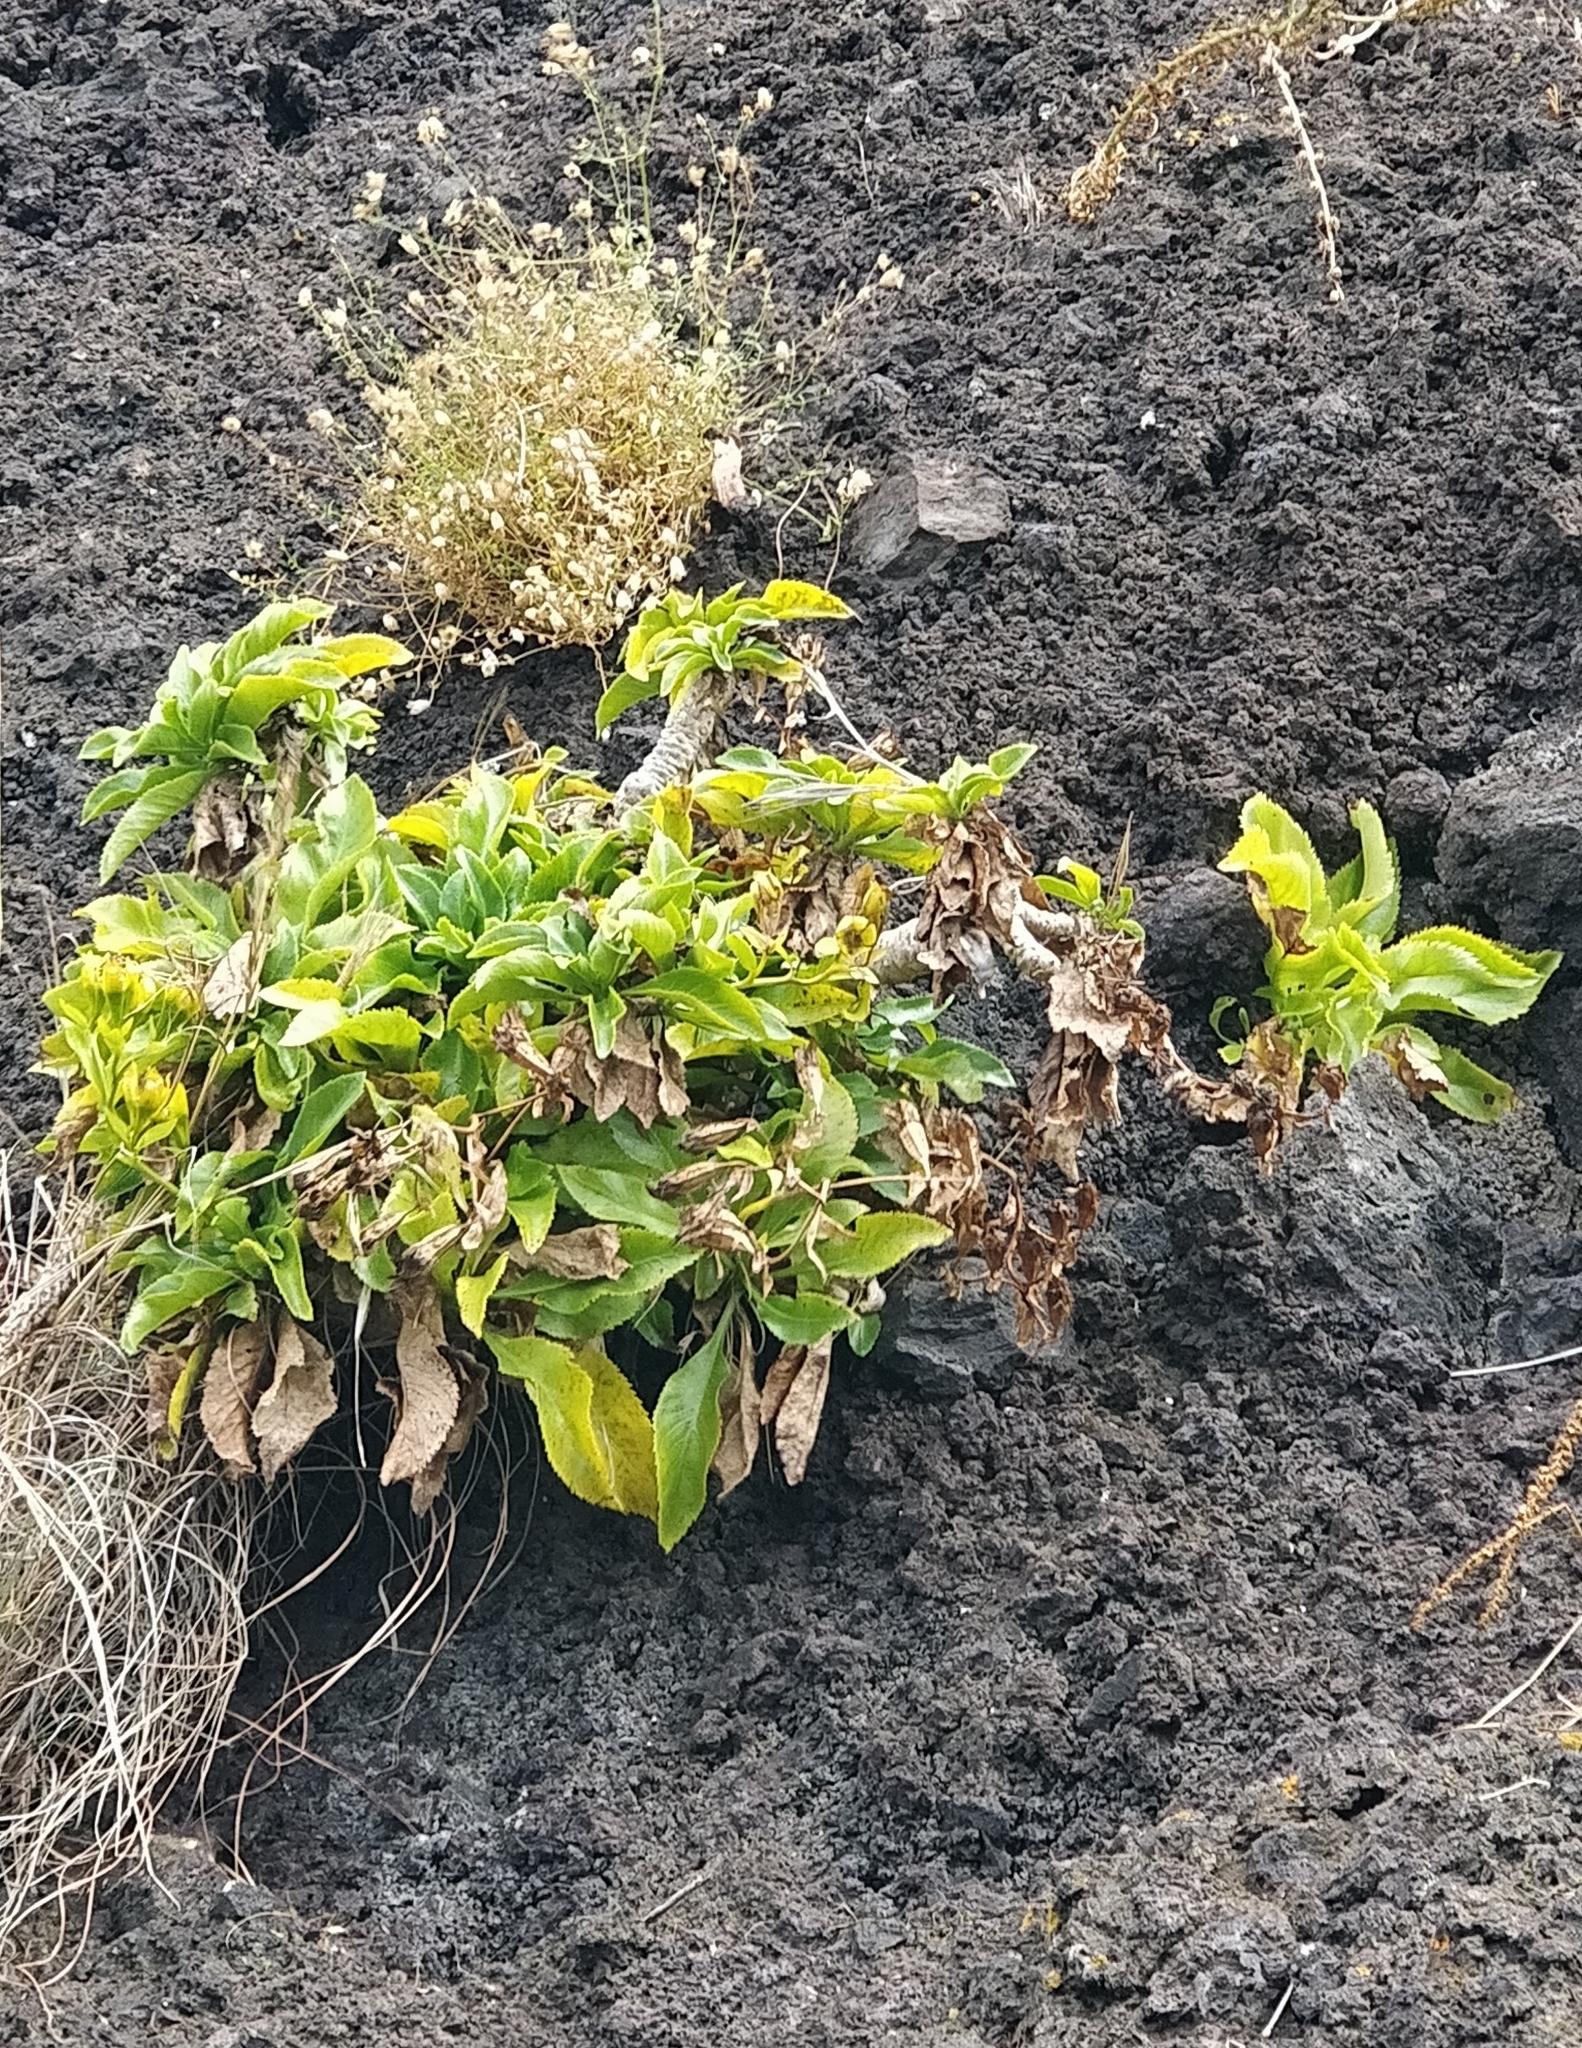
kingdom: Plantae
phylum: Tracheophyta
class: Magnoliopsida
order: Asterales
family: Campanulaceae
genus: Musschia
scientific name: Musschia aurea
